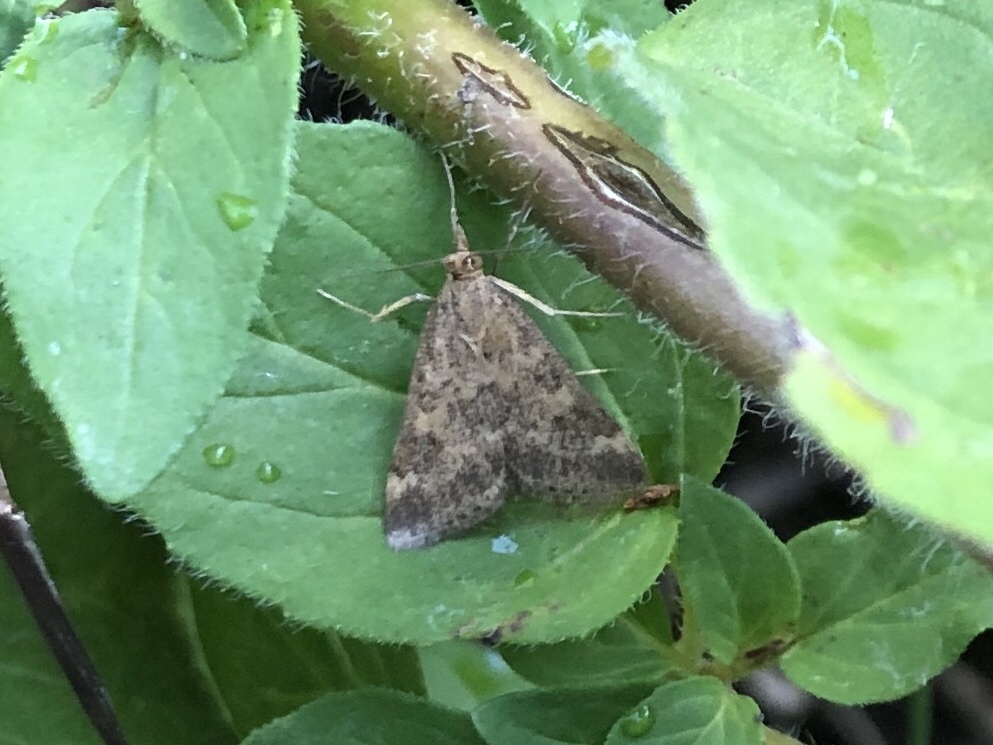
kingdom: Animalia
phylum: Arthropoda
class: Insecta
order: Lepidoptera
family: Crambidae
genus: Pyrausta
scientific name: Pyrausta despicata
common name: Straw-barred pearl
